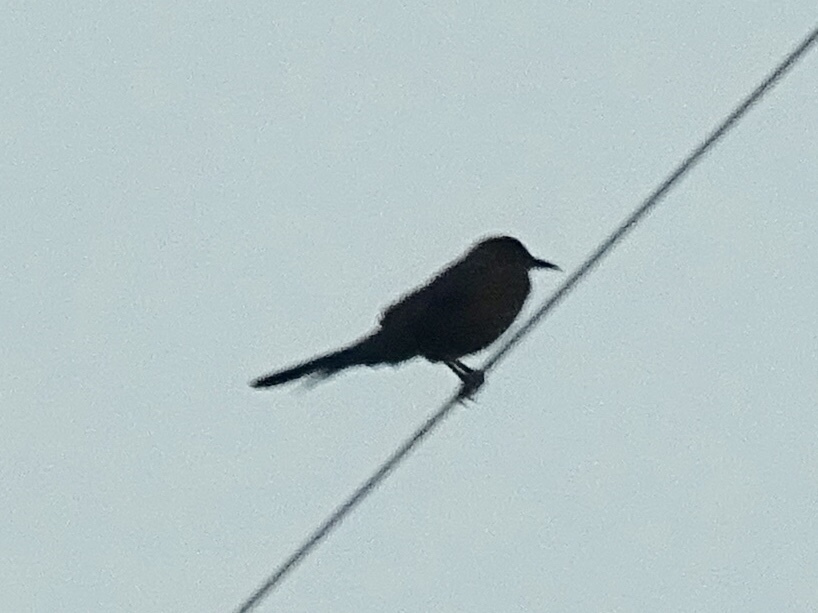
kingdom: Animalia
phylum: Chordata
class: Aves
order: Passeriformes
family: Icteridae
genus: Quiscalus
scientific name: Quiscalus mexicanus
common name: Great-tailed grackle
